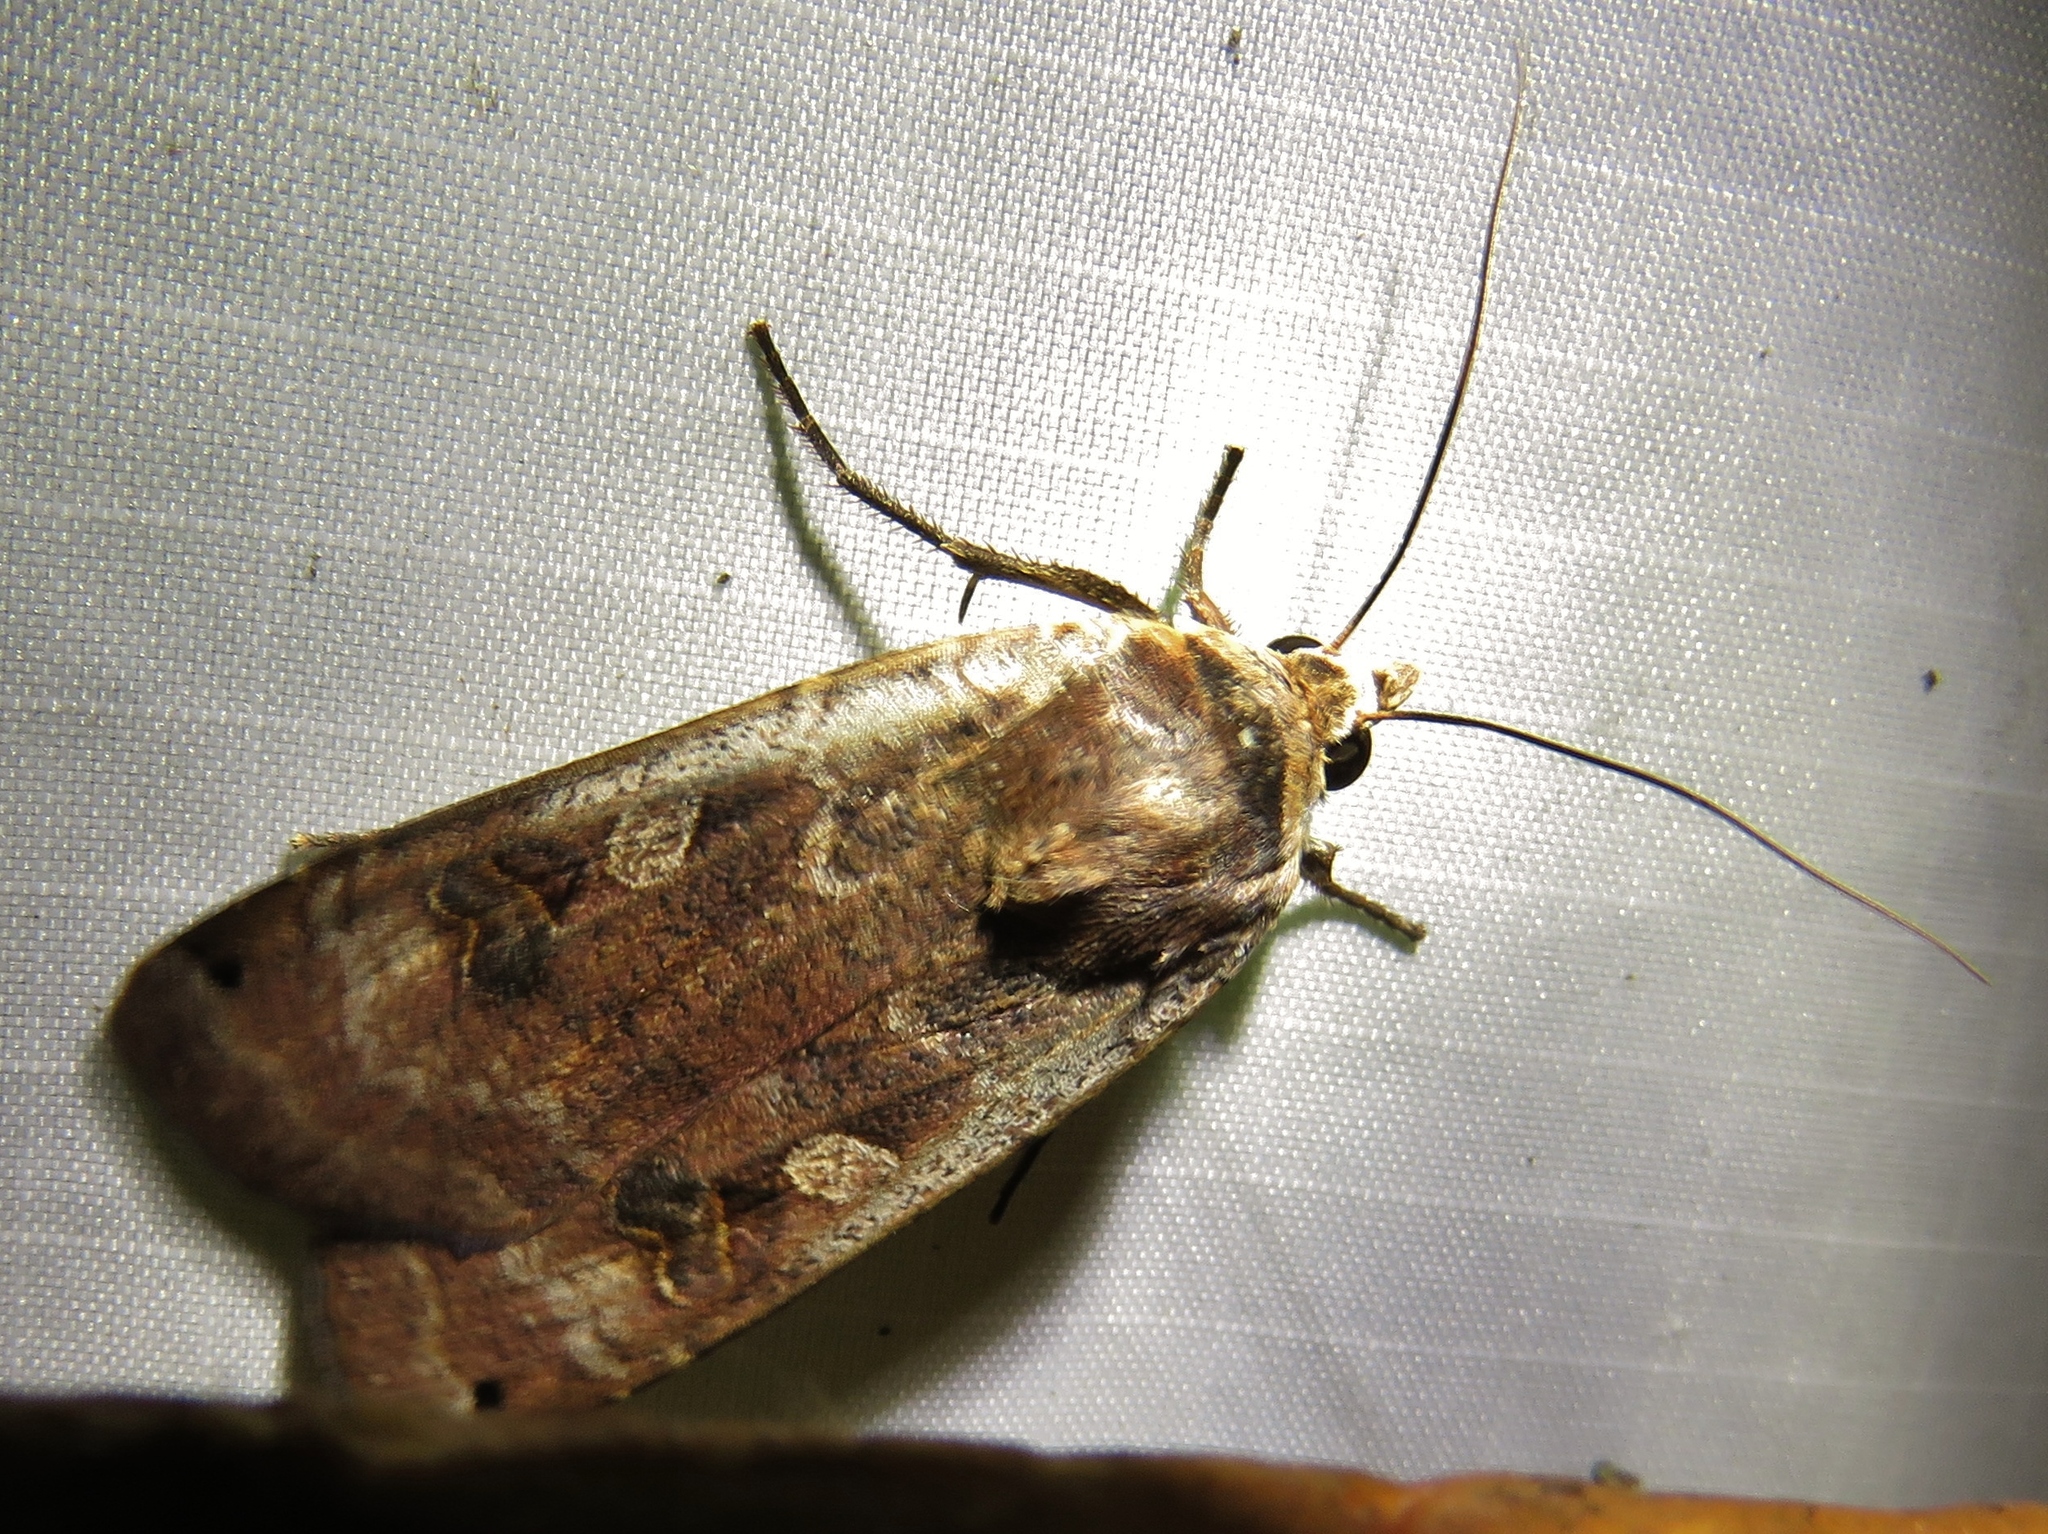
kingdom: Animalia
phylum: Arthropoda
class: Insecta
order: Lepidoptera
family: Noctuidae
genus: Noctua
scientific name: Noctua pronuba
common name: Large yellow underwing
